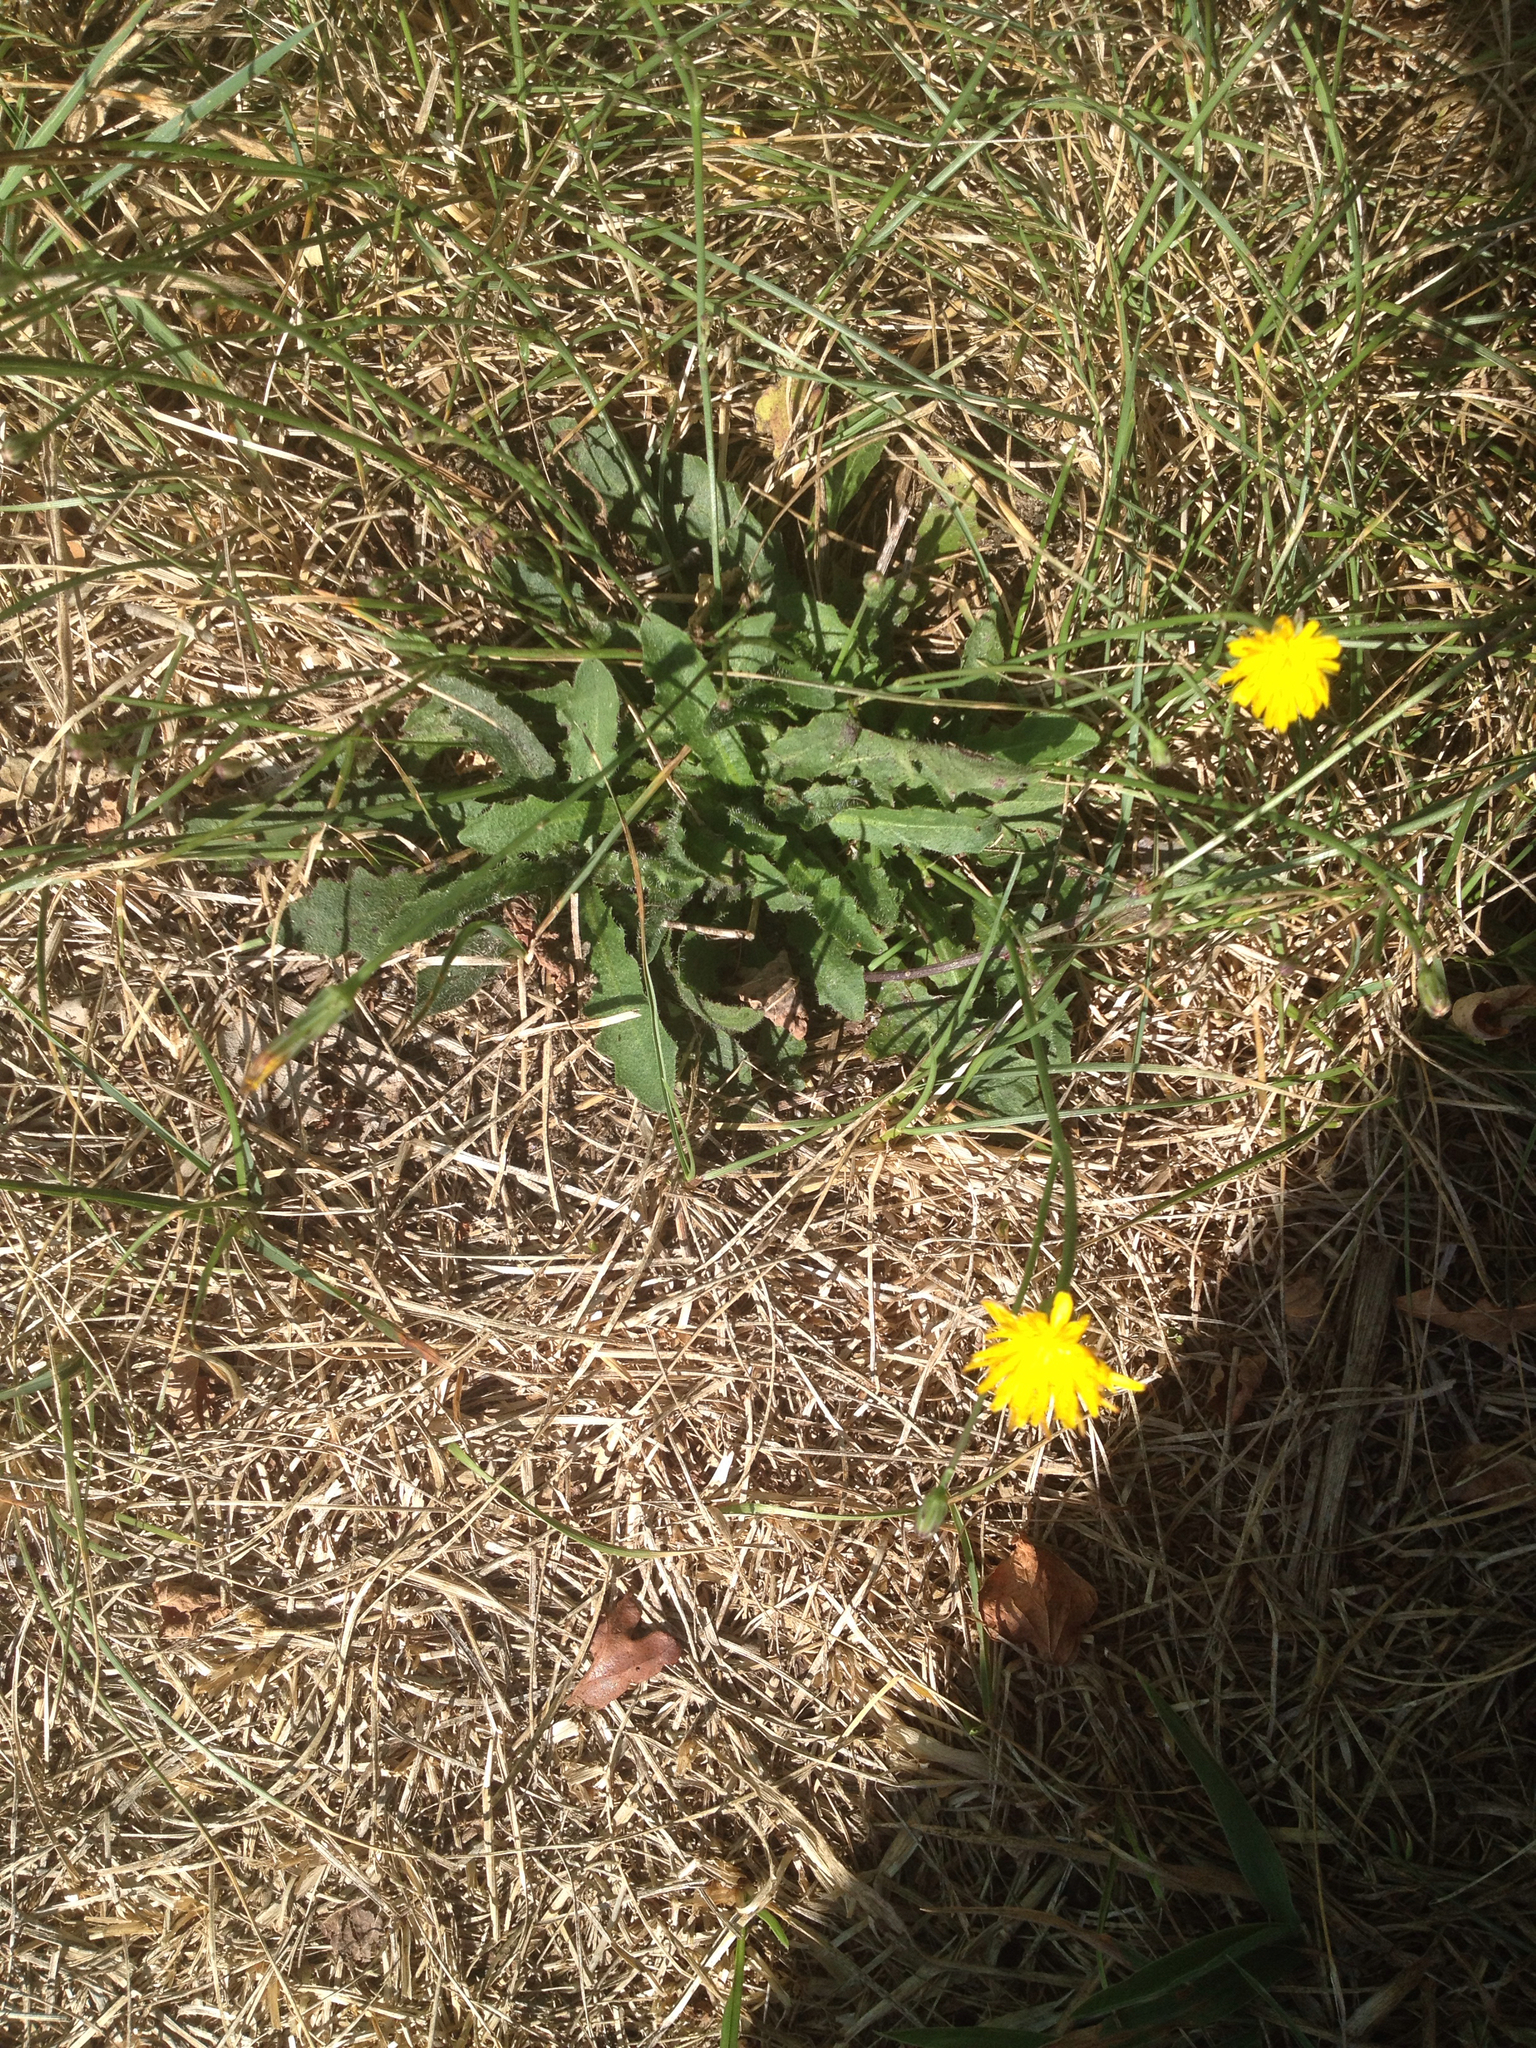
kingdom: Plantae
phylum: Tracheophyta
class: Magnoliopsida
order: Asterales
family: Asteraceae
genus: Hypochaeris
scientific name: Hypochaeris radicata
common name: Flatweed
